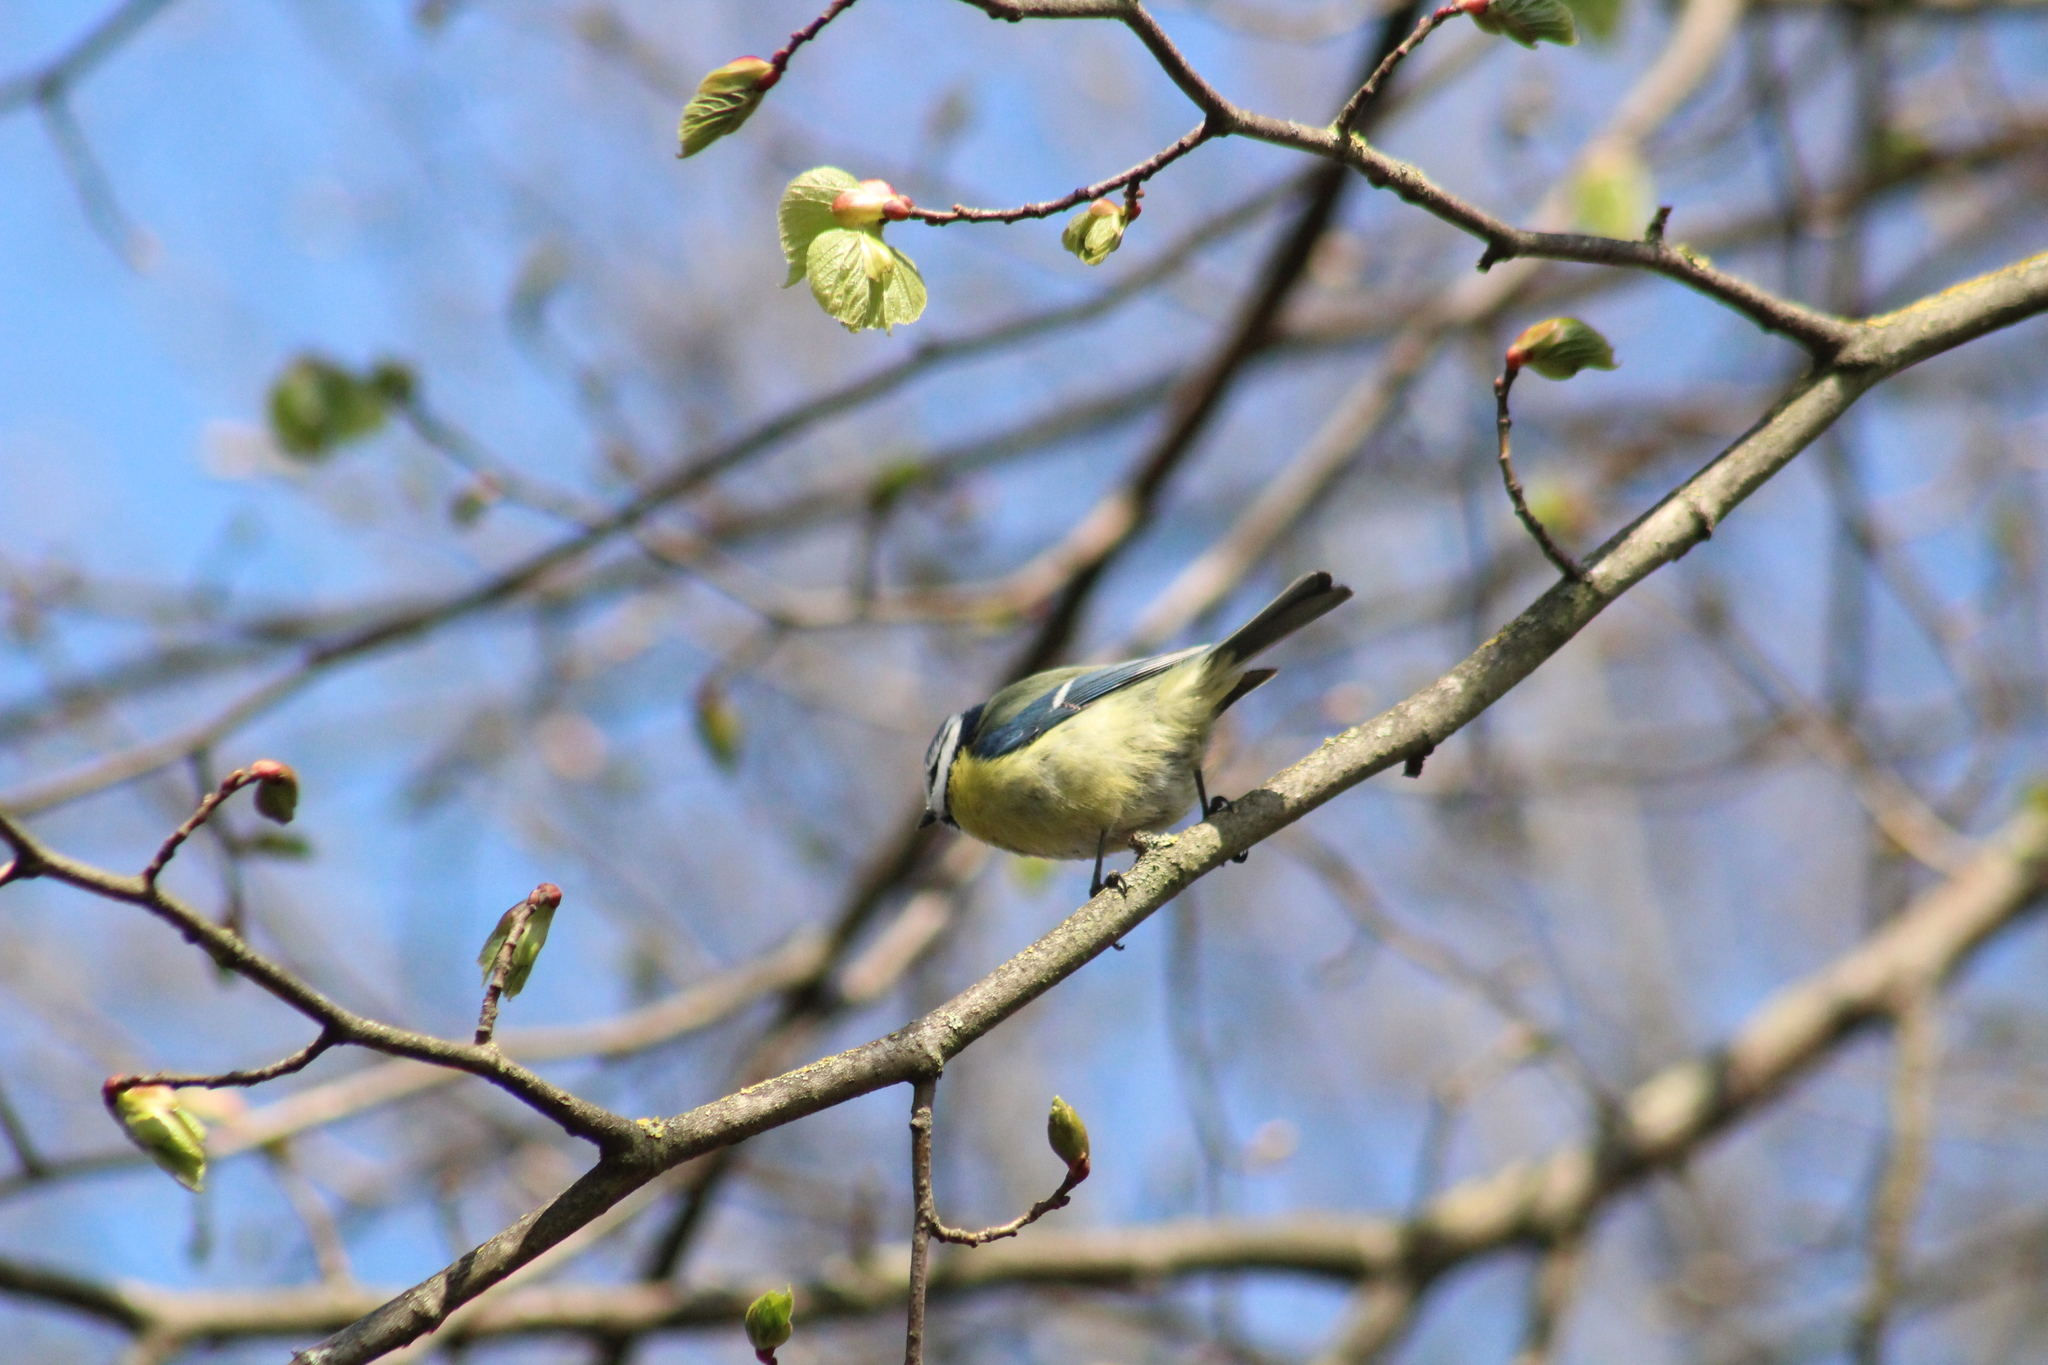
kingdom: Animalia
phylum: Chordata
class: Aves
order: Passeriformes
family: Paridae
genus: Cyanistes
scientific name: Cyanistes caeruleus
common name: Eurasian blue tit
